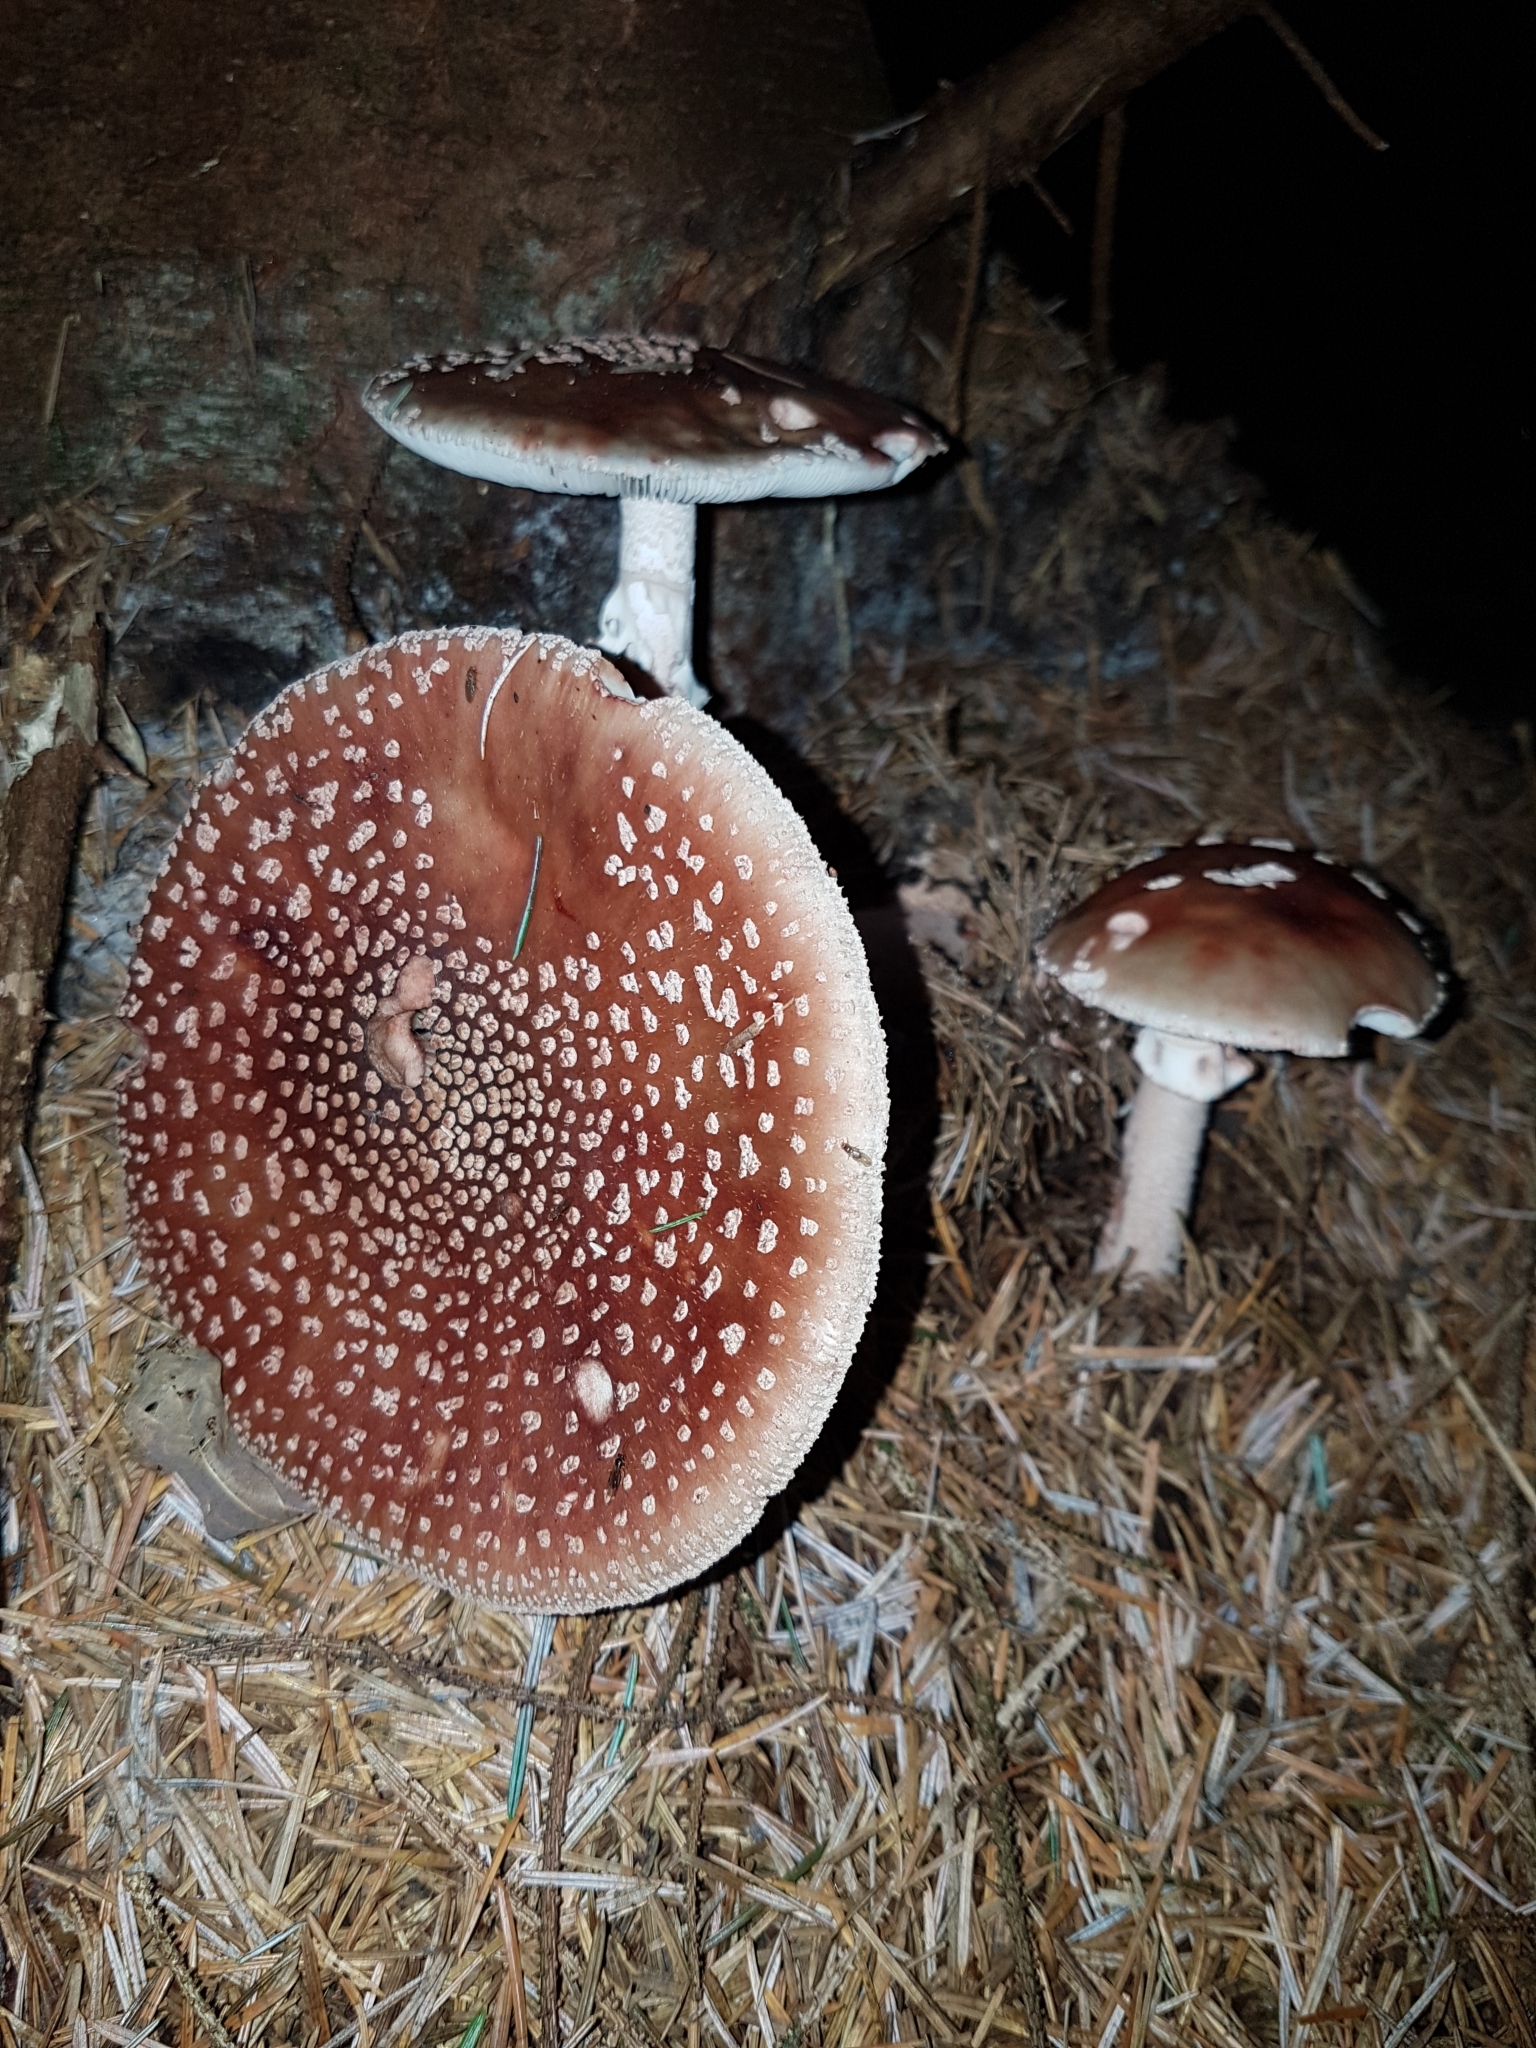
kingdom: Fungi
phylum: Basidiomycota
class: Agaricomycetes
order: Agaricales
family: Amanitaceae
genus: Amanita
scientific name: Amanita rubescens
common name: Blusher
